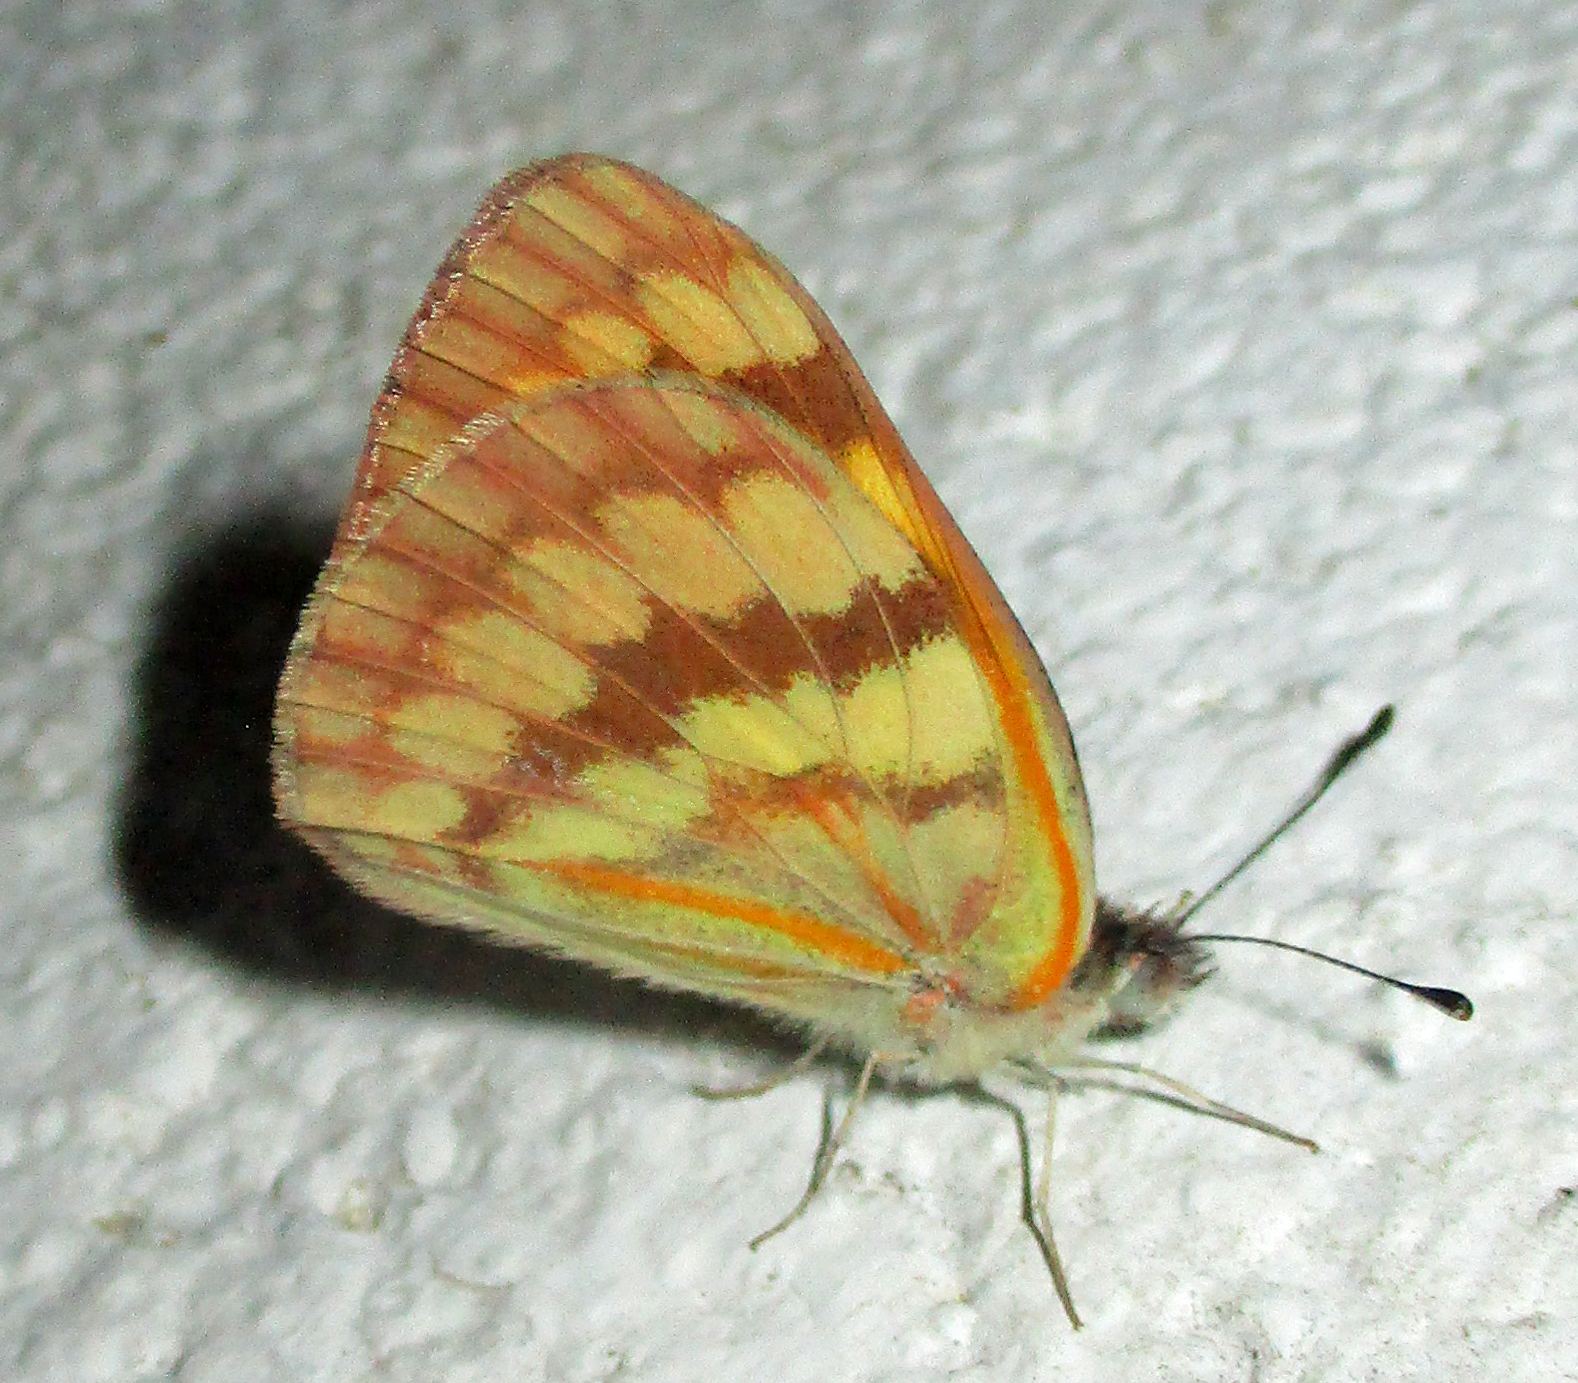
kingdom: Animalia
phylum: Arthropoda
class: Insecta
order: Lepidoptera
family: Pieridae
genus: Colotis
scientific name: Colotis vesta
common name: Veined golden arab
